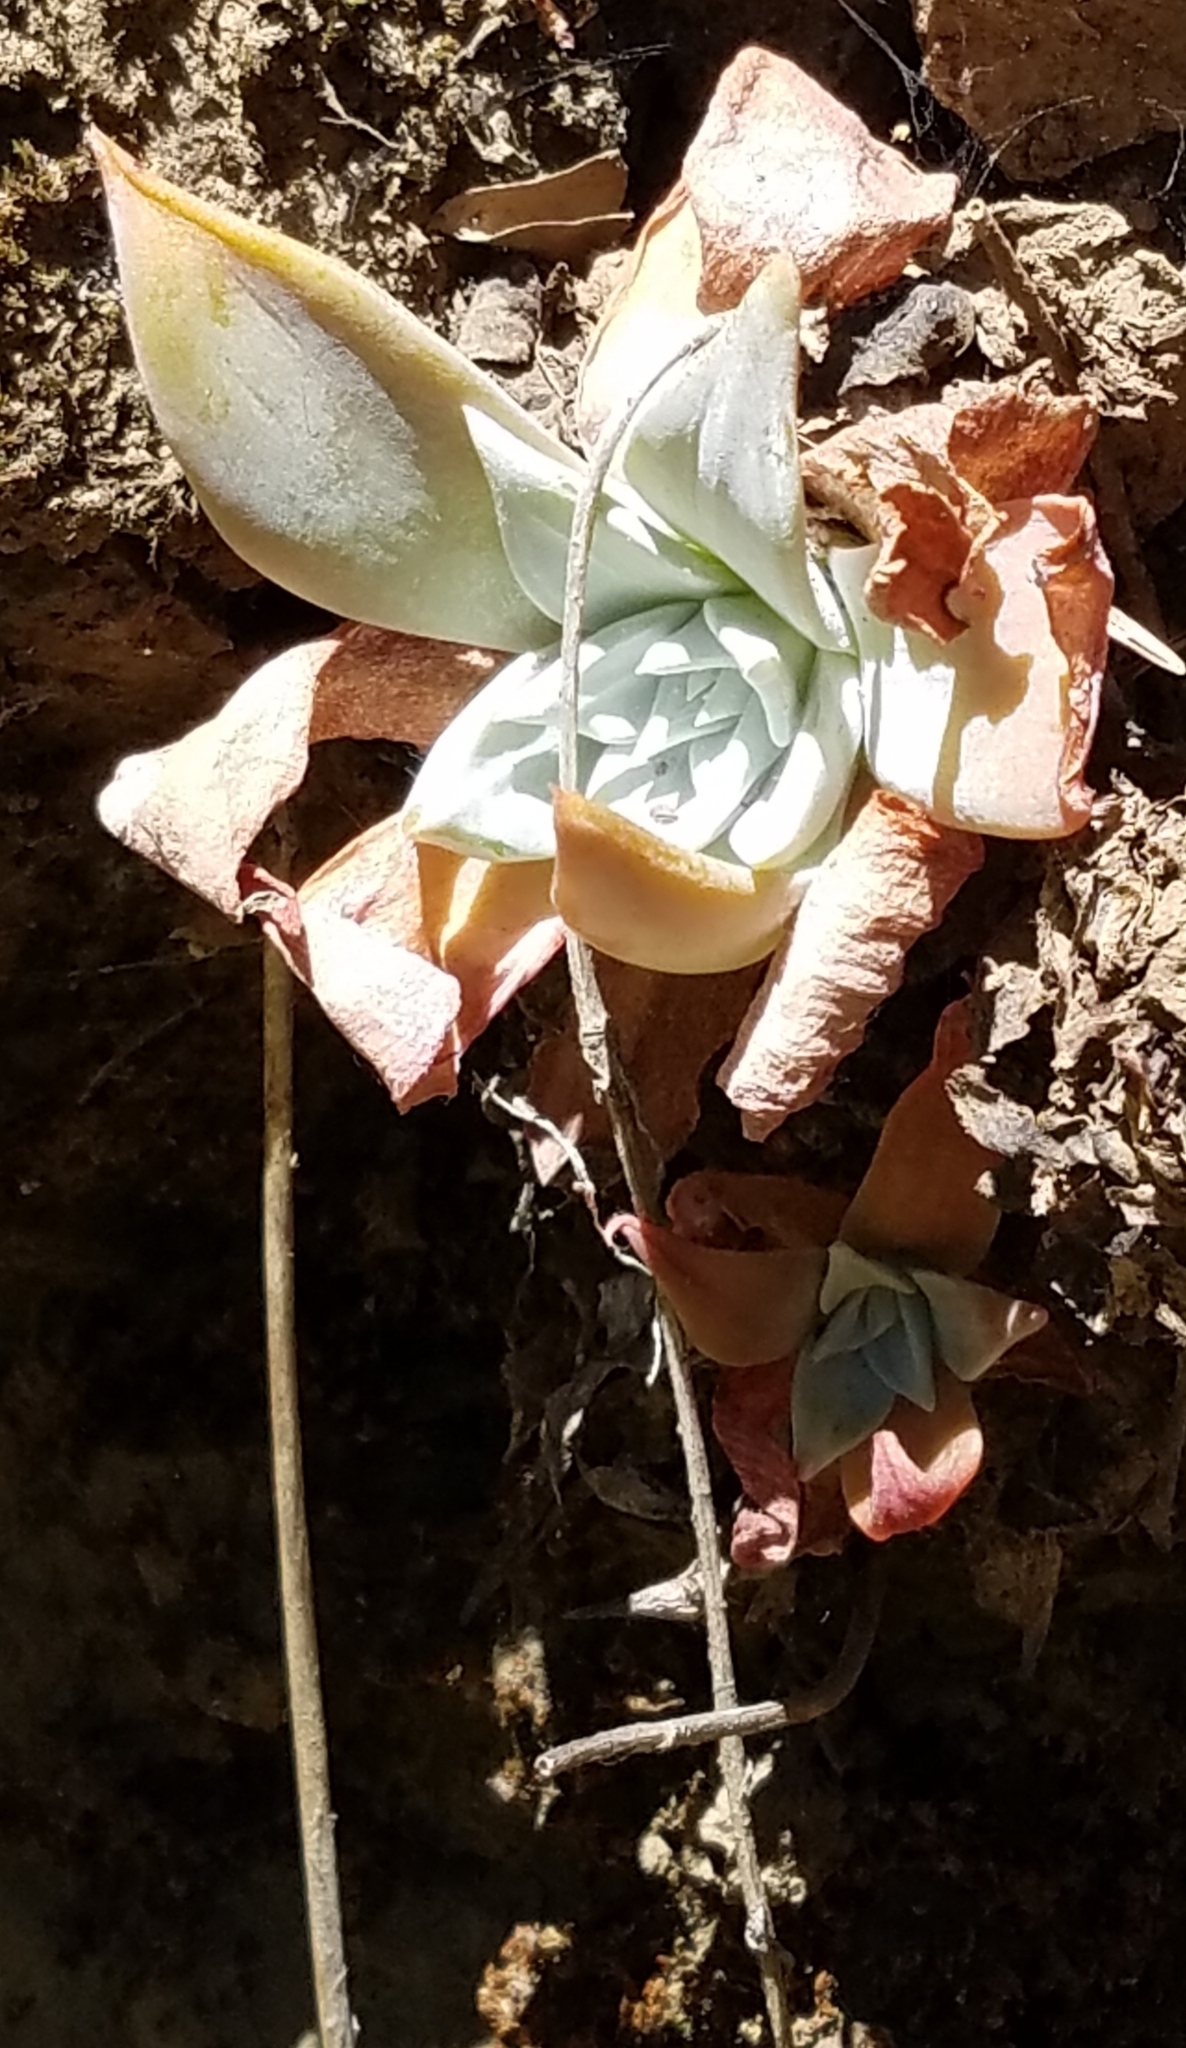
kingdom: Plantae
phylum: Tracheophyta
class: Magnoliopsida
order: Saxifragales
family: Crassulaceae
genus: Dudleya
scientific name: Dudleya cymosa
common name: Canyon dudleya
